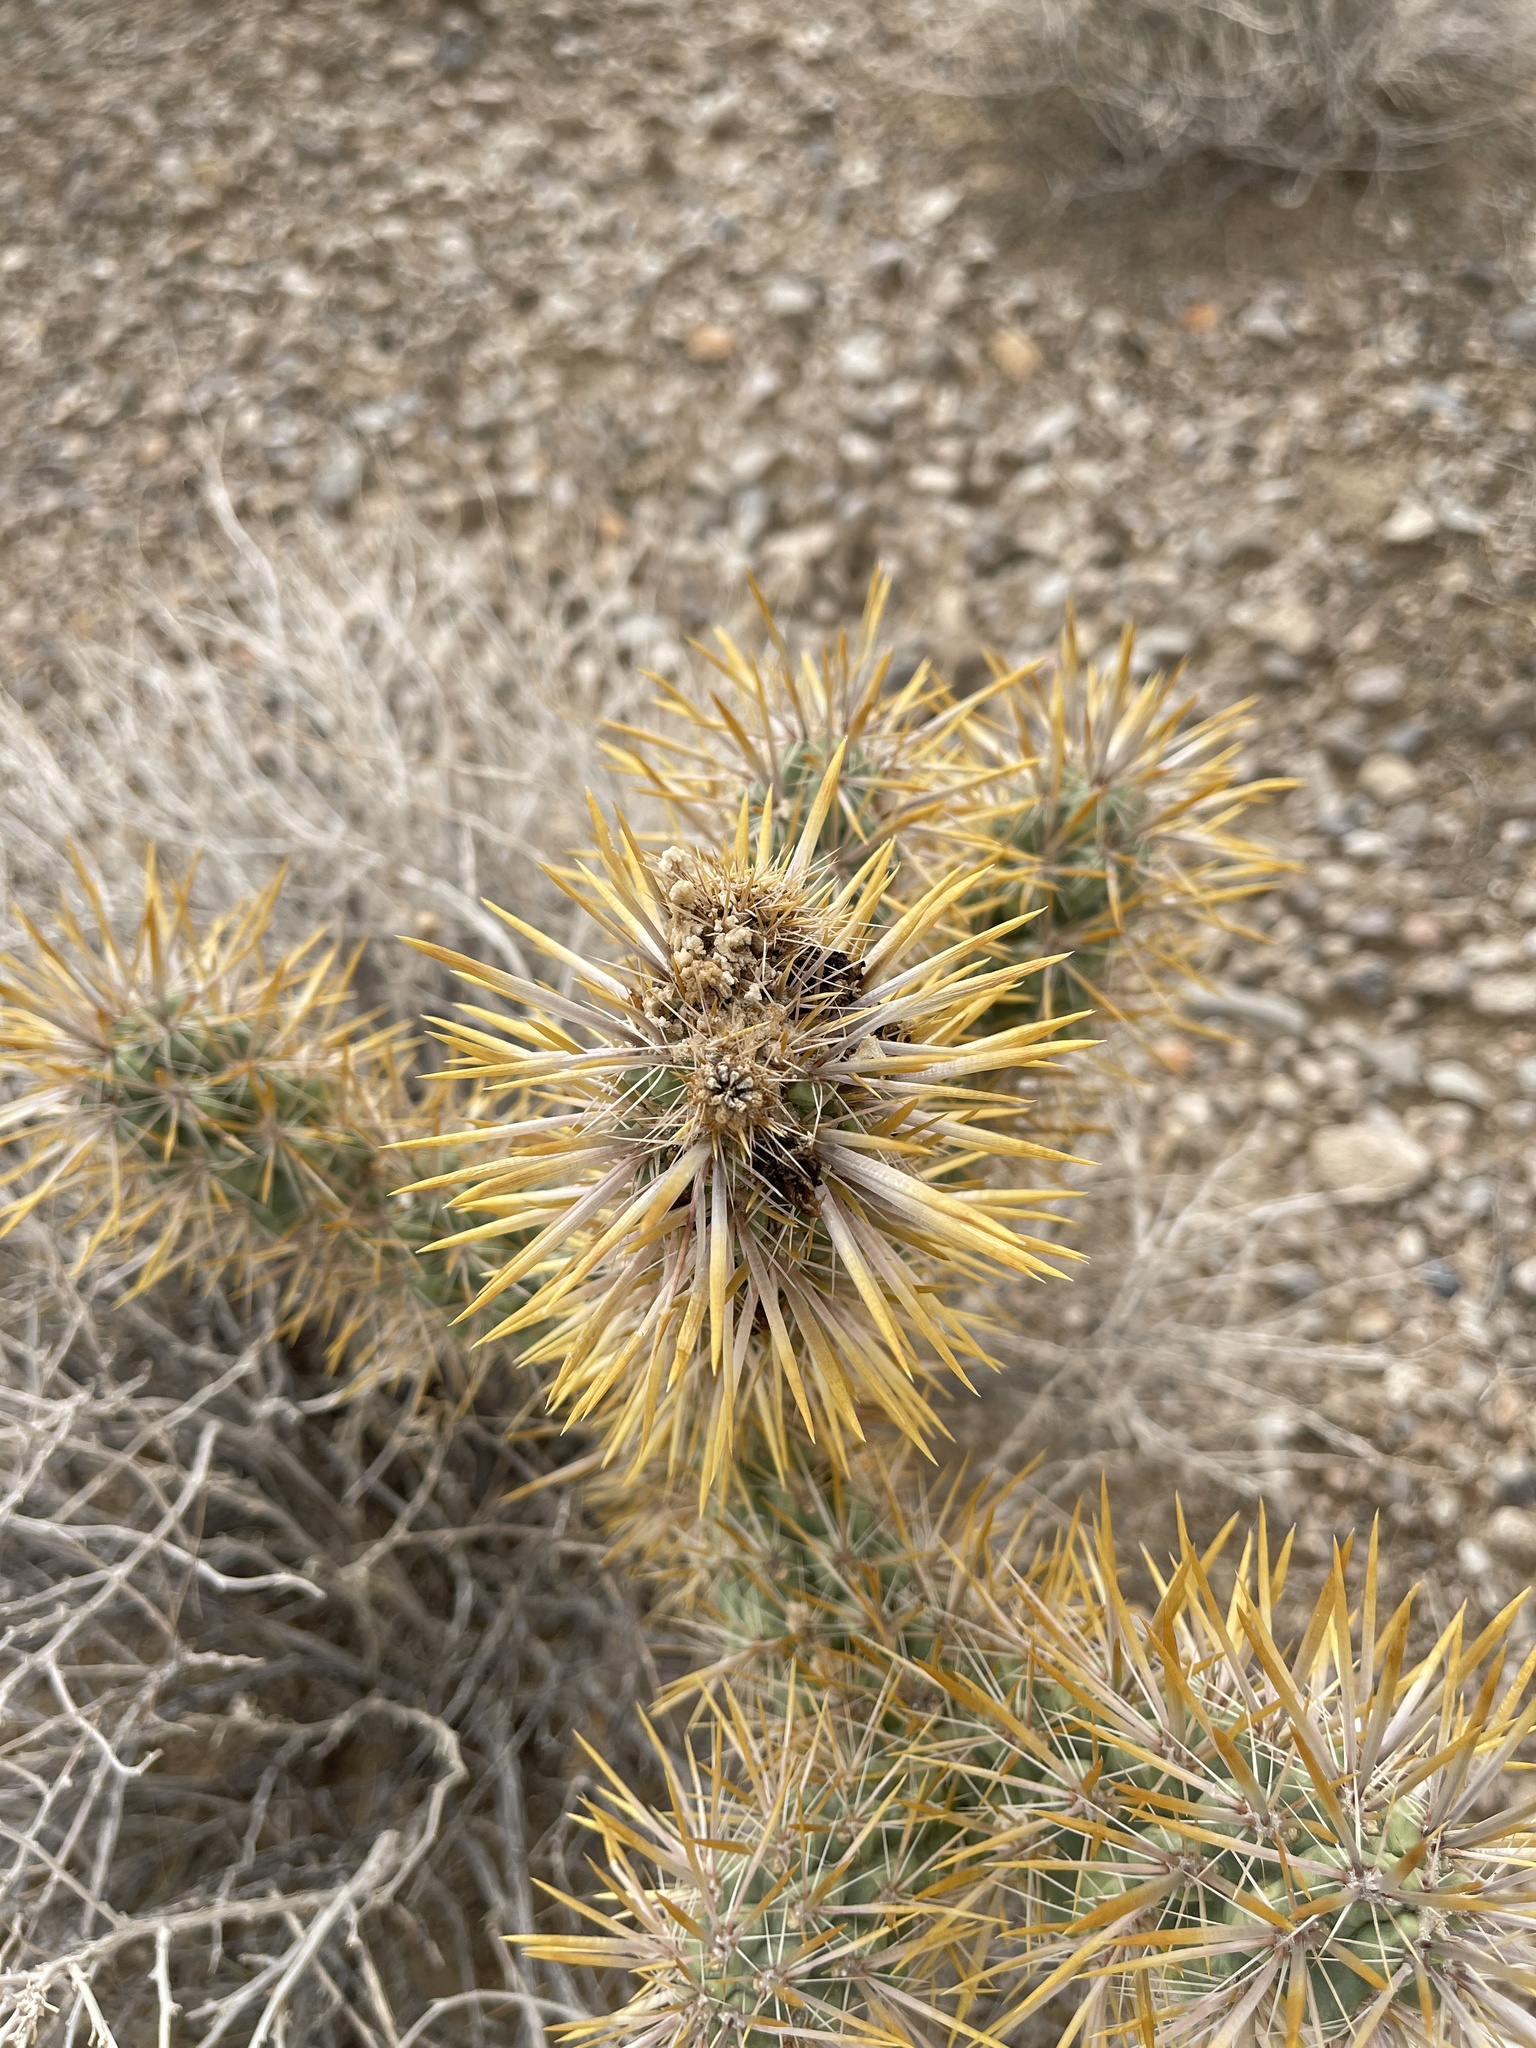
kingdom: Plantae
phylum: Tracheophyta
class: Magnoliopsida
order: Caryophyllales
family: Cactaceae
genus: Cylindropuntia
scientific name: Cylindropuntia echinocarpa
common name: Ground cholla
